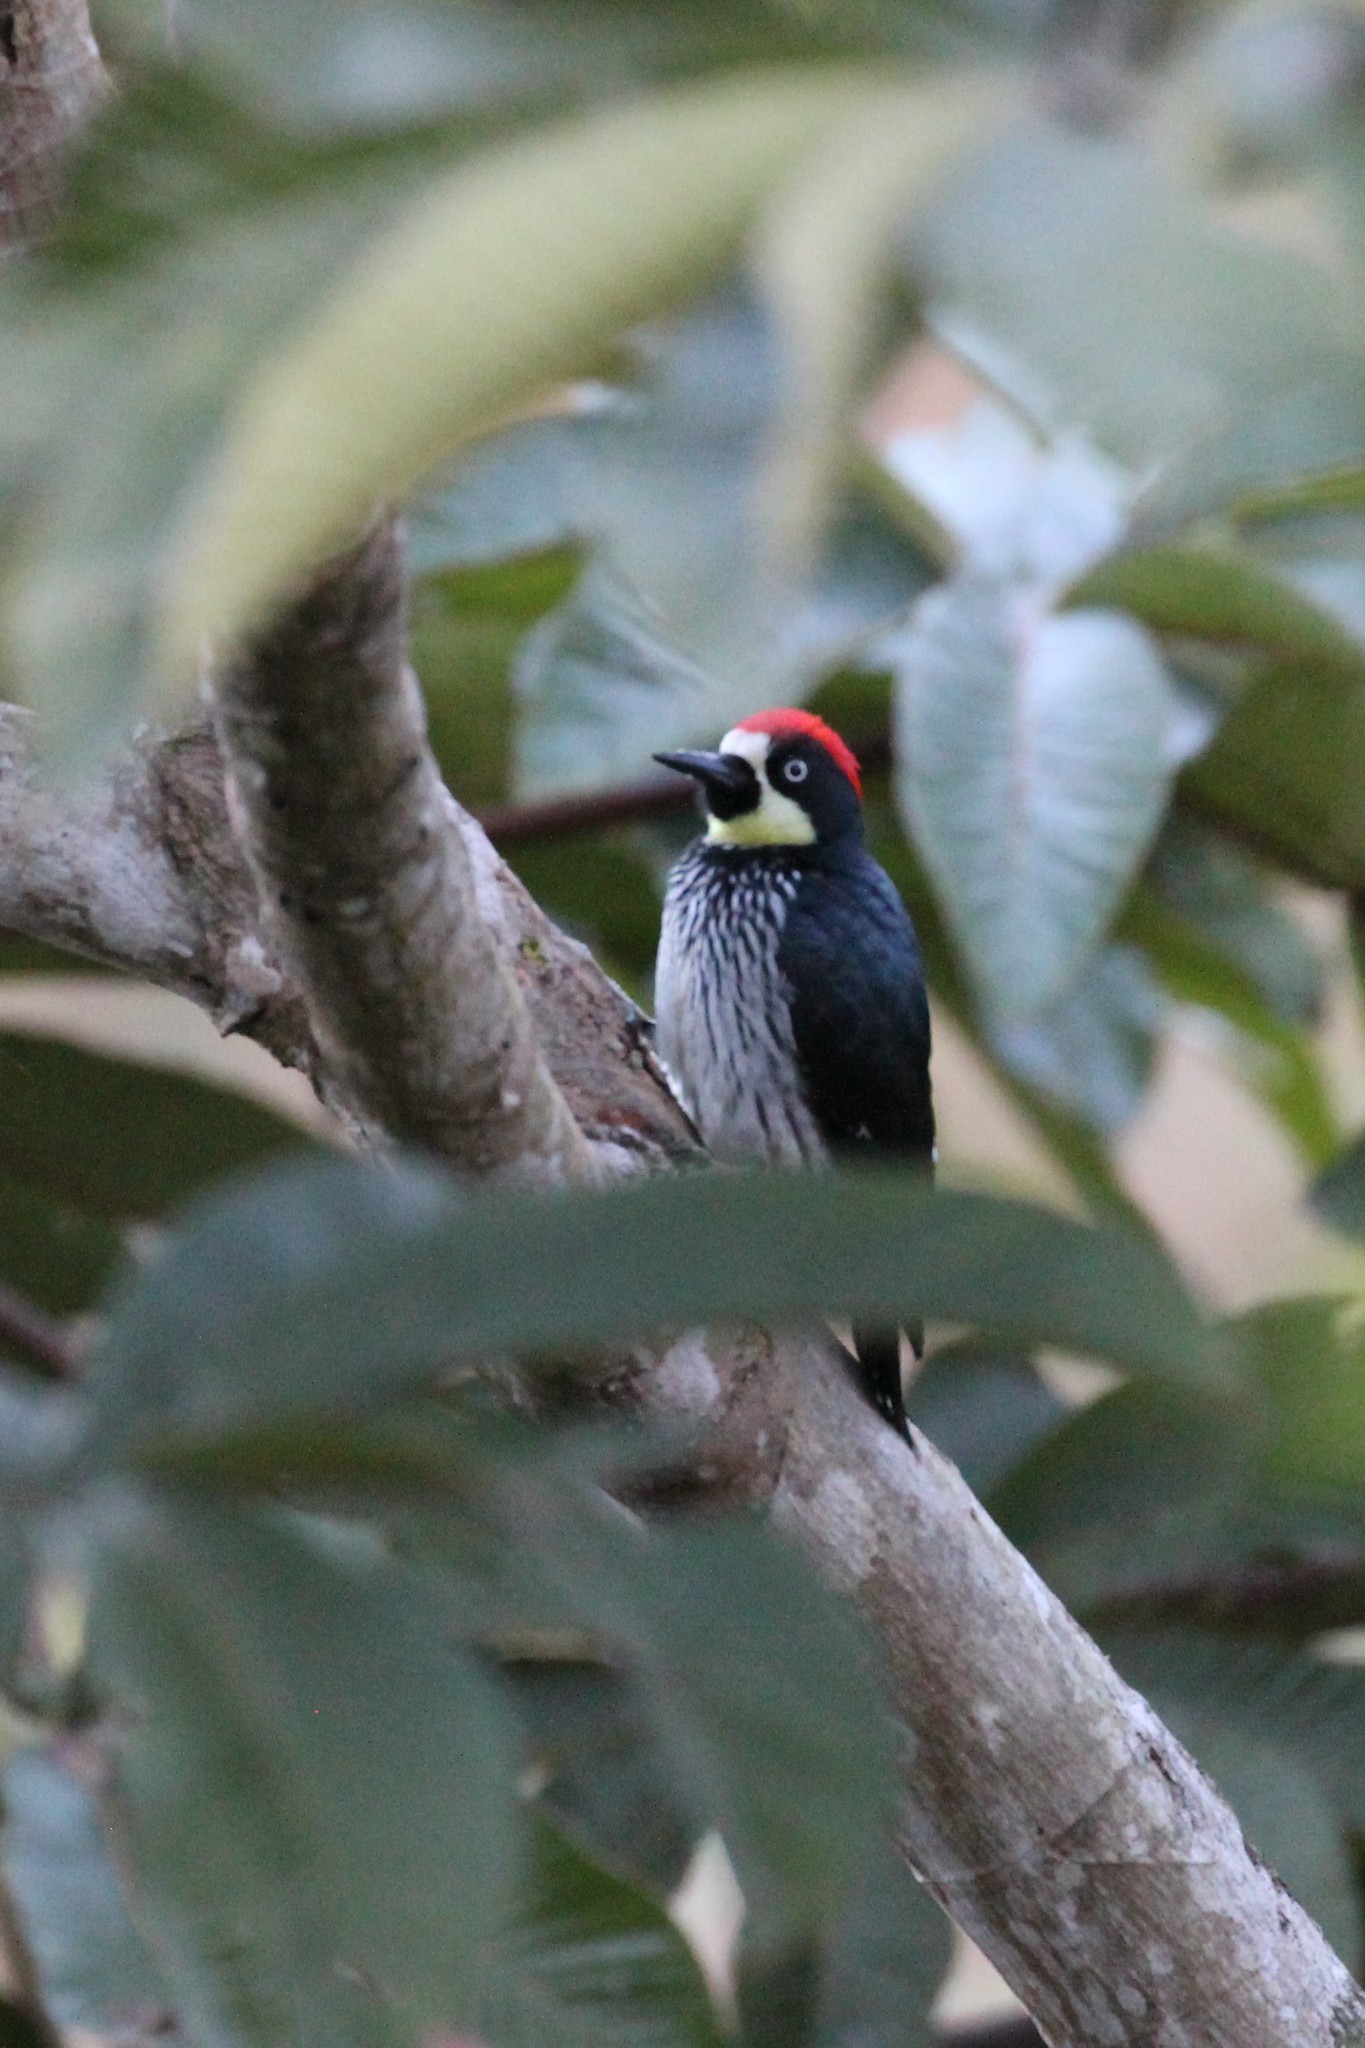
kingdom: Animalia
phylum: Chordata
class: Aves
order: Piciformes
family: Picidae
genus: Melanerpes
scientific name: Melanerpes formicivorus
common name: Acorn woodpecker
